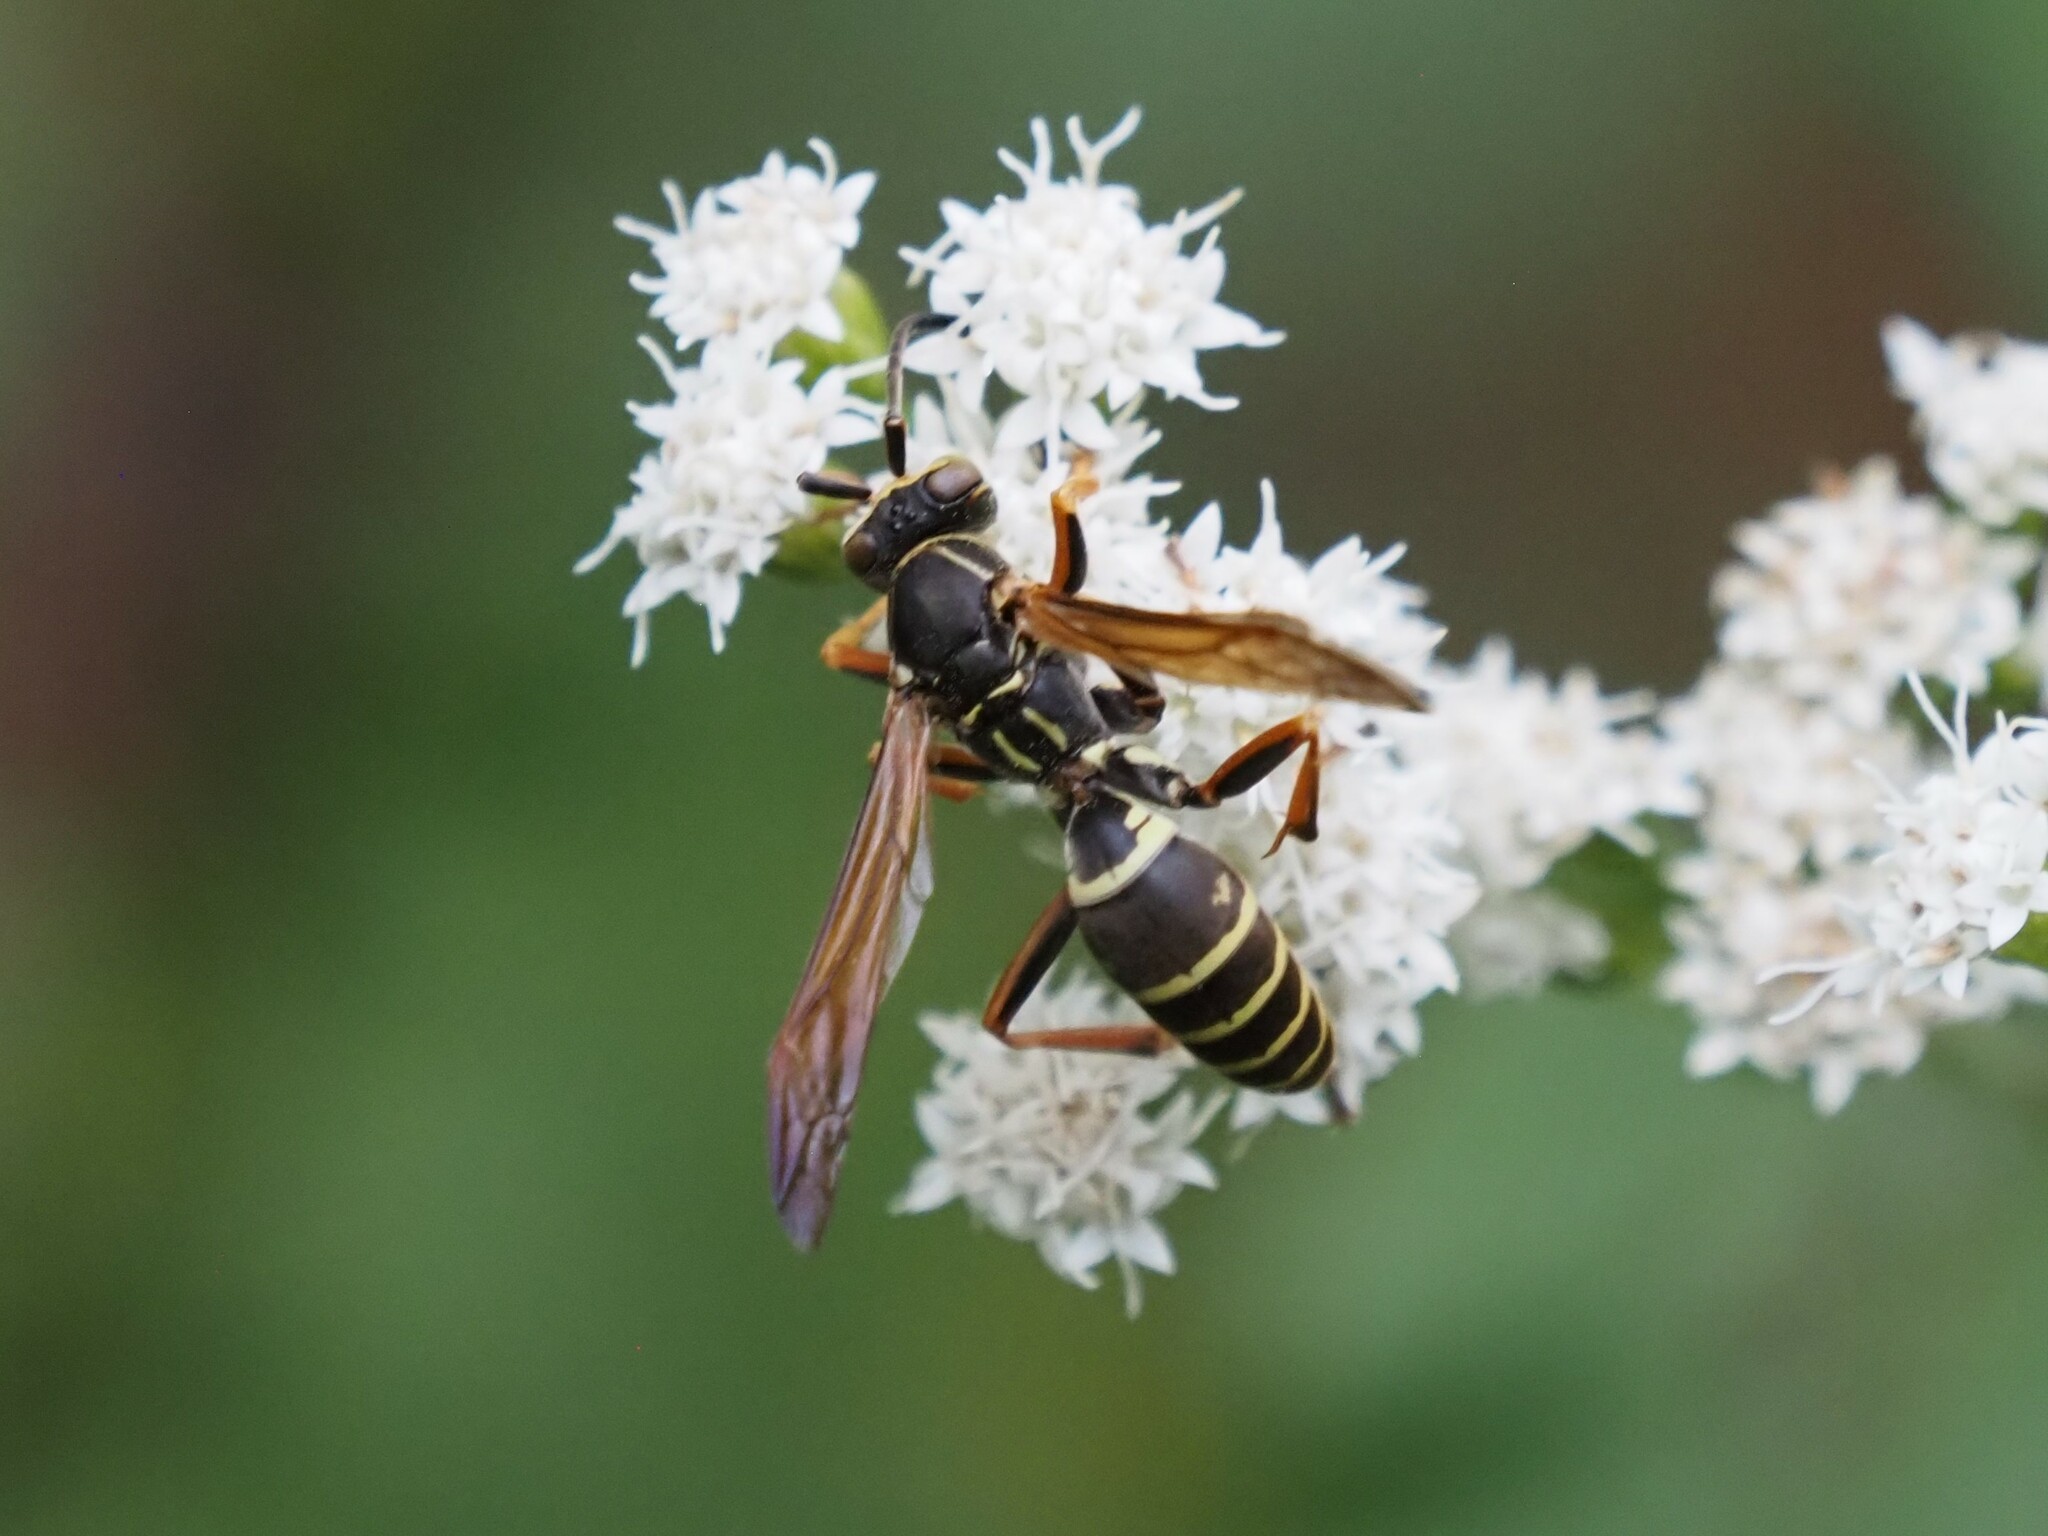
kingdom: Animalia
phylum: Arthropoda
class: Insecta
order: Hymenoptera
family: Eumenidae
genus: Polistes
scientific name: Polistes fuscatus
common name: Dark paper wasp
